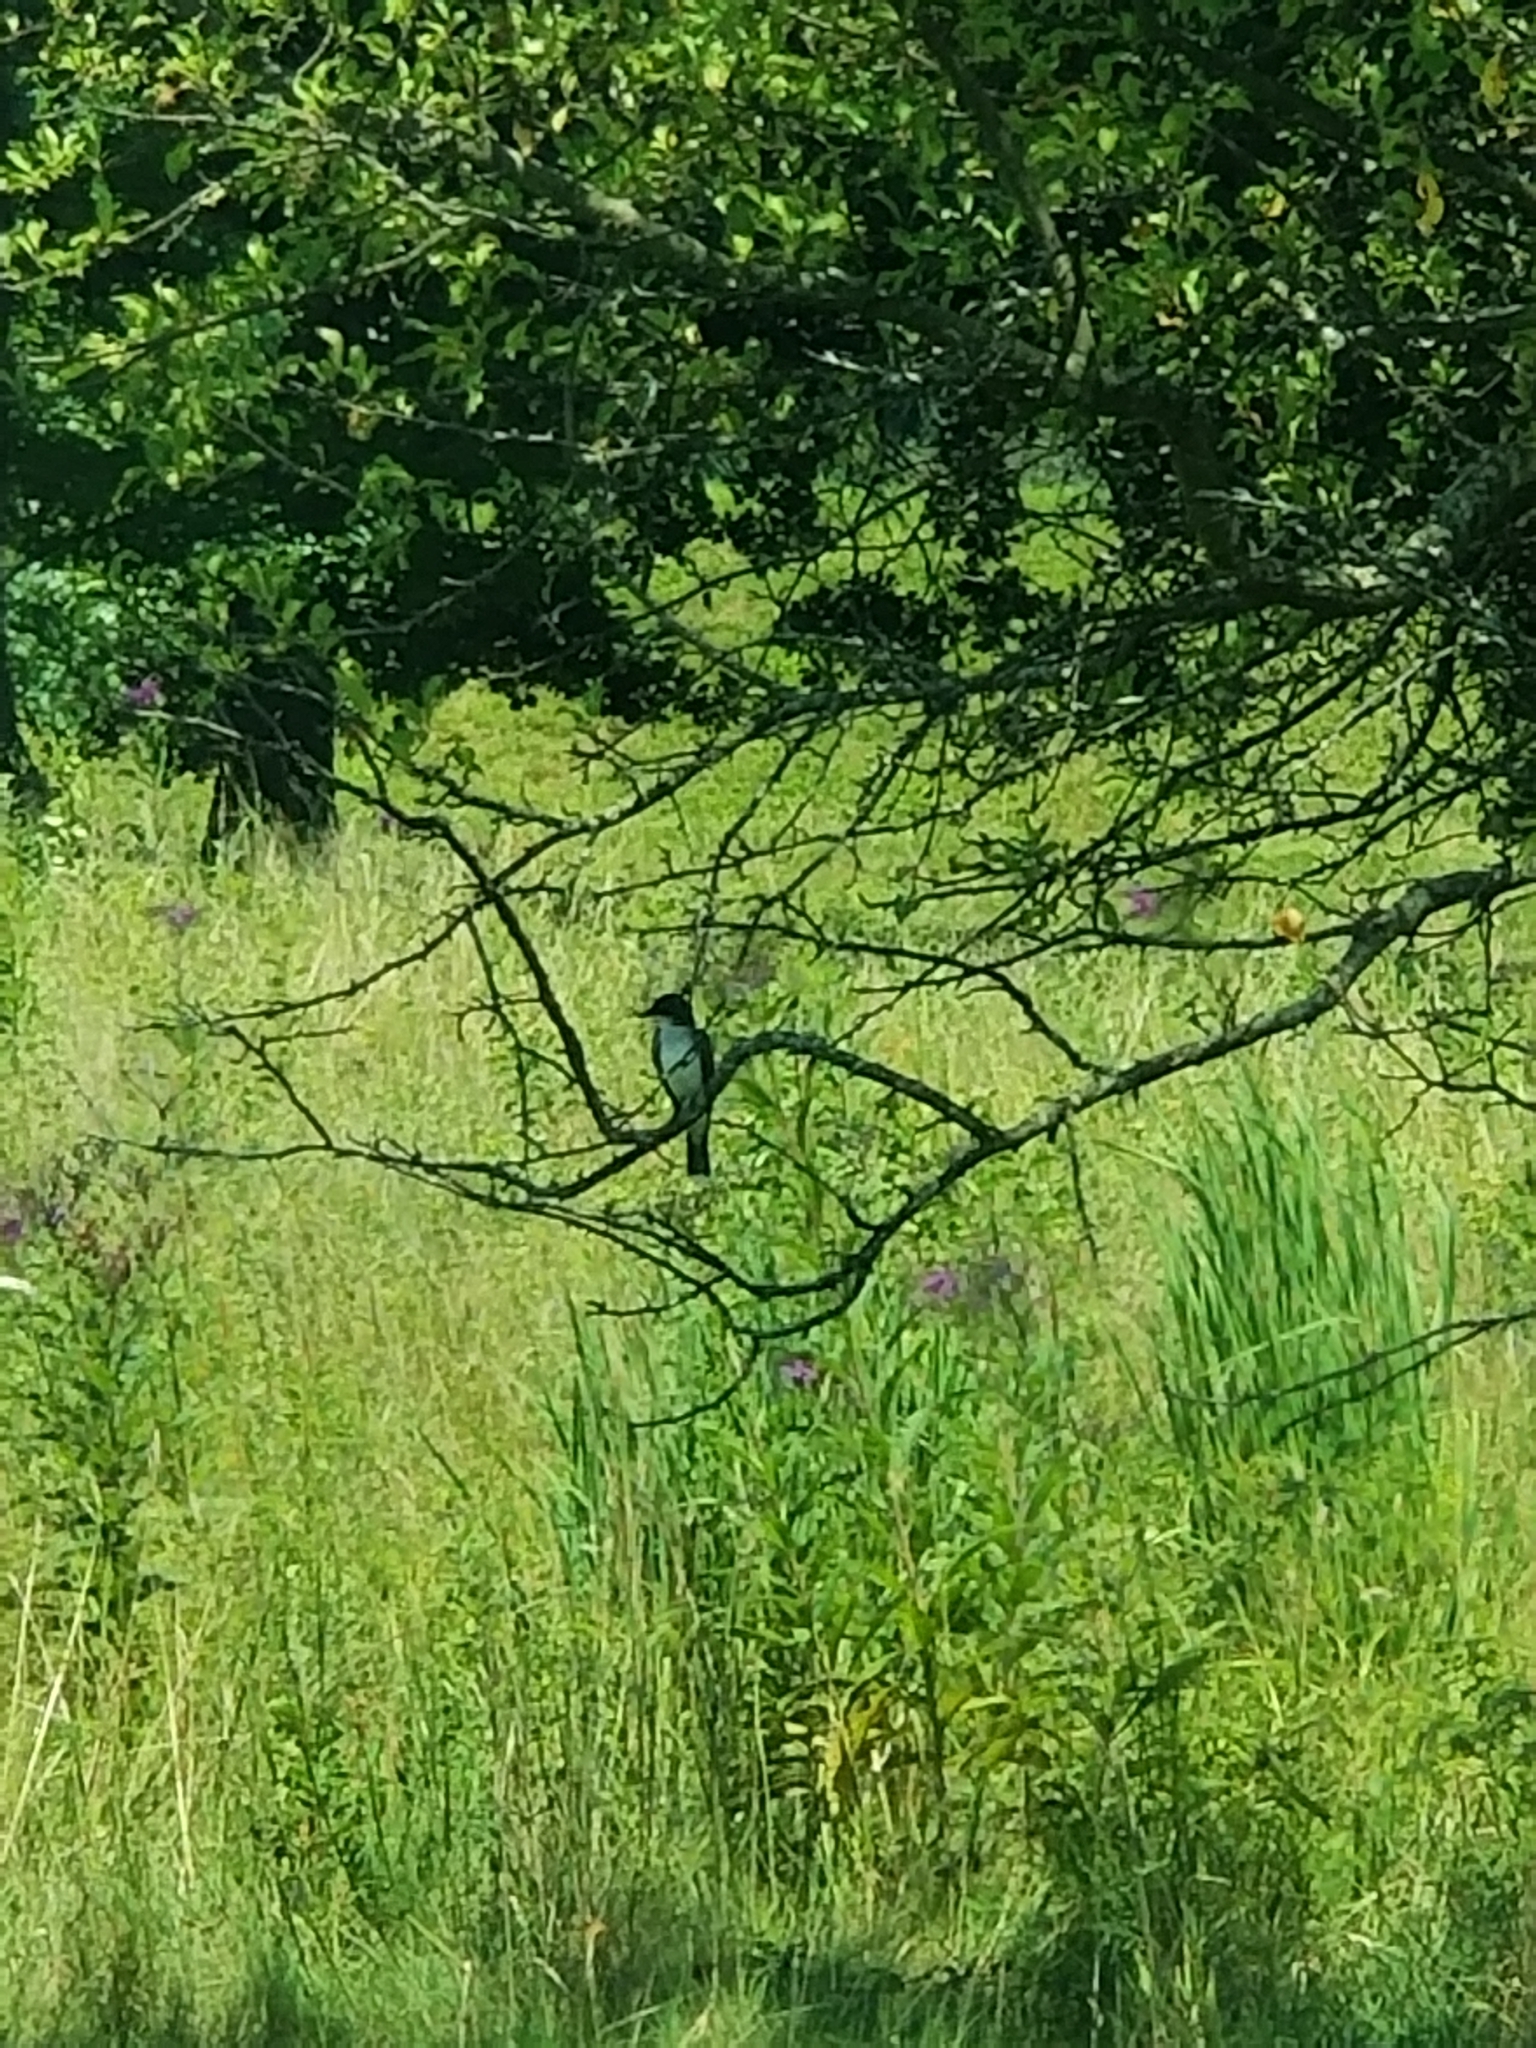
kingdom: Animalia
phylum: Chordata
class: Aves
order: Passeriformes
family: Tyrannidae
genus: Tyrannus
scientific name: Tyrannus tyrannus
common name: Eastern kingbird
